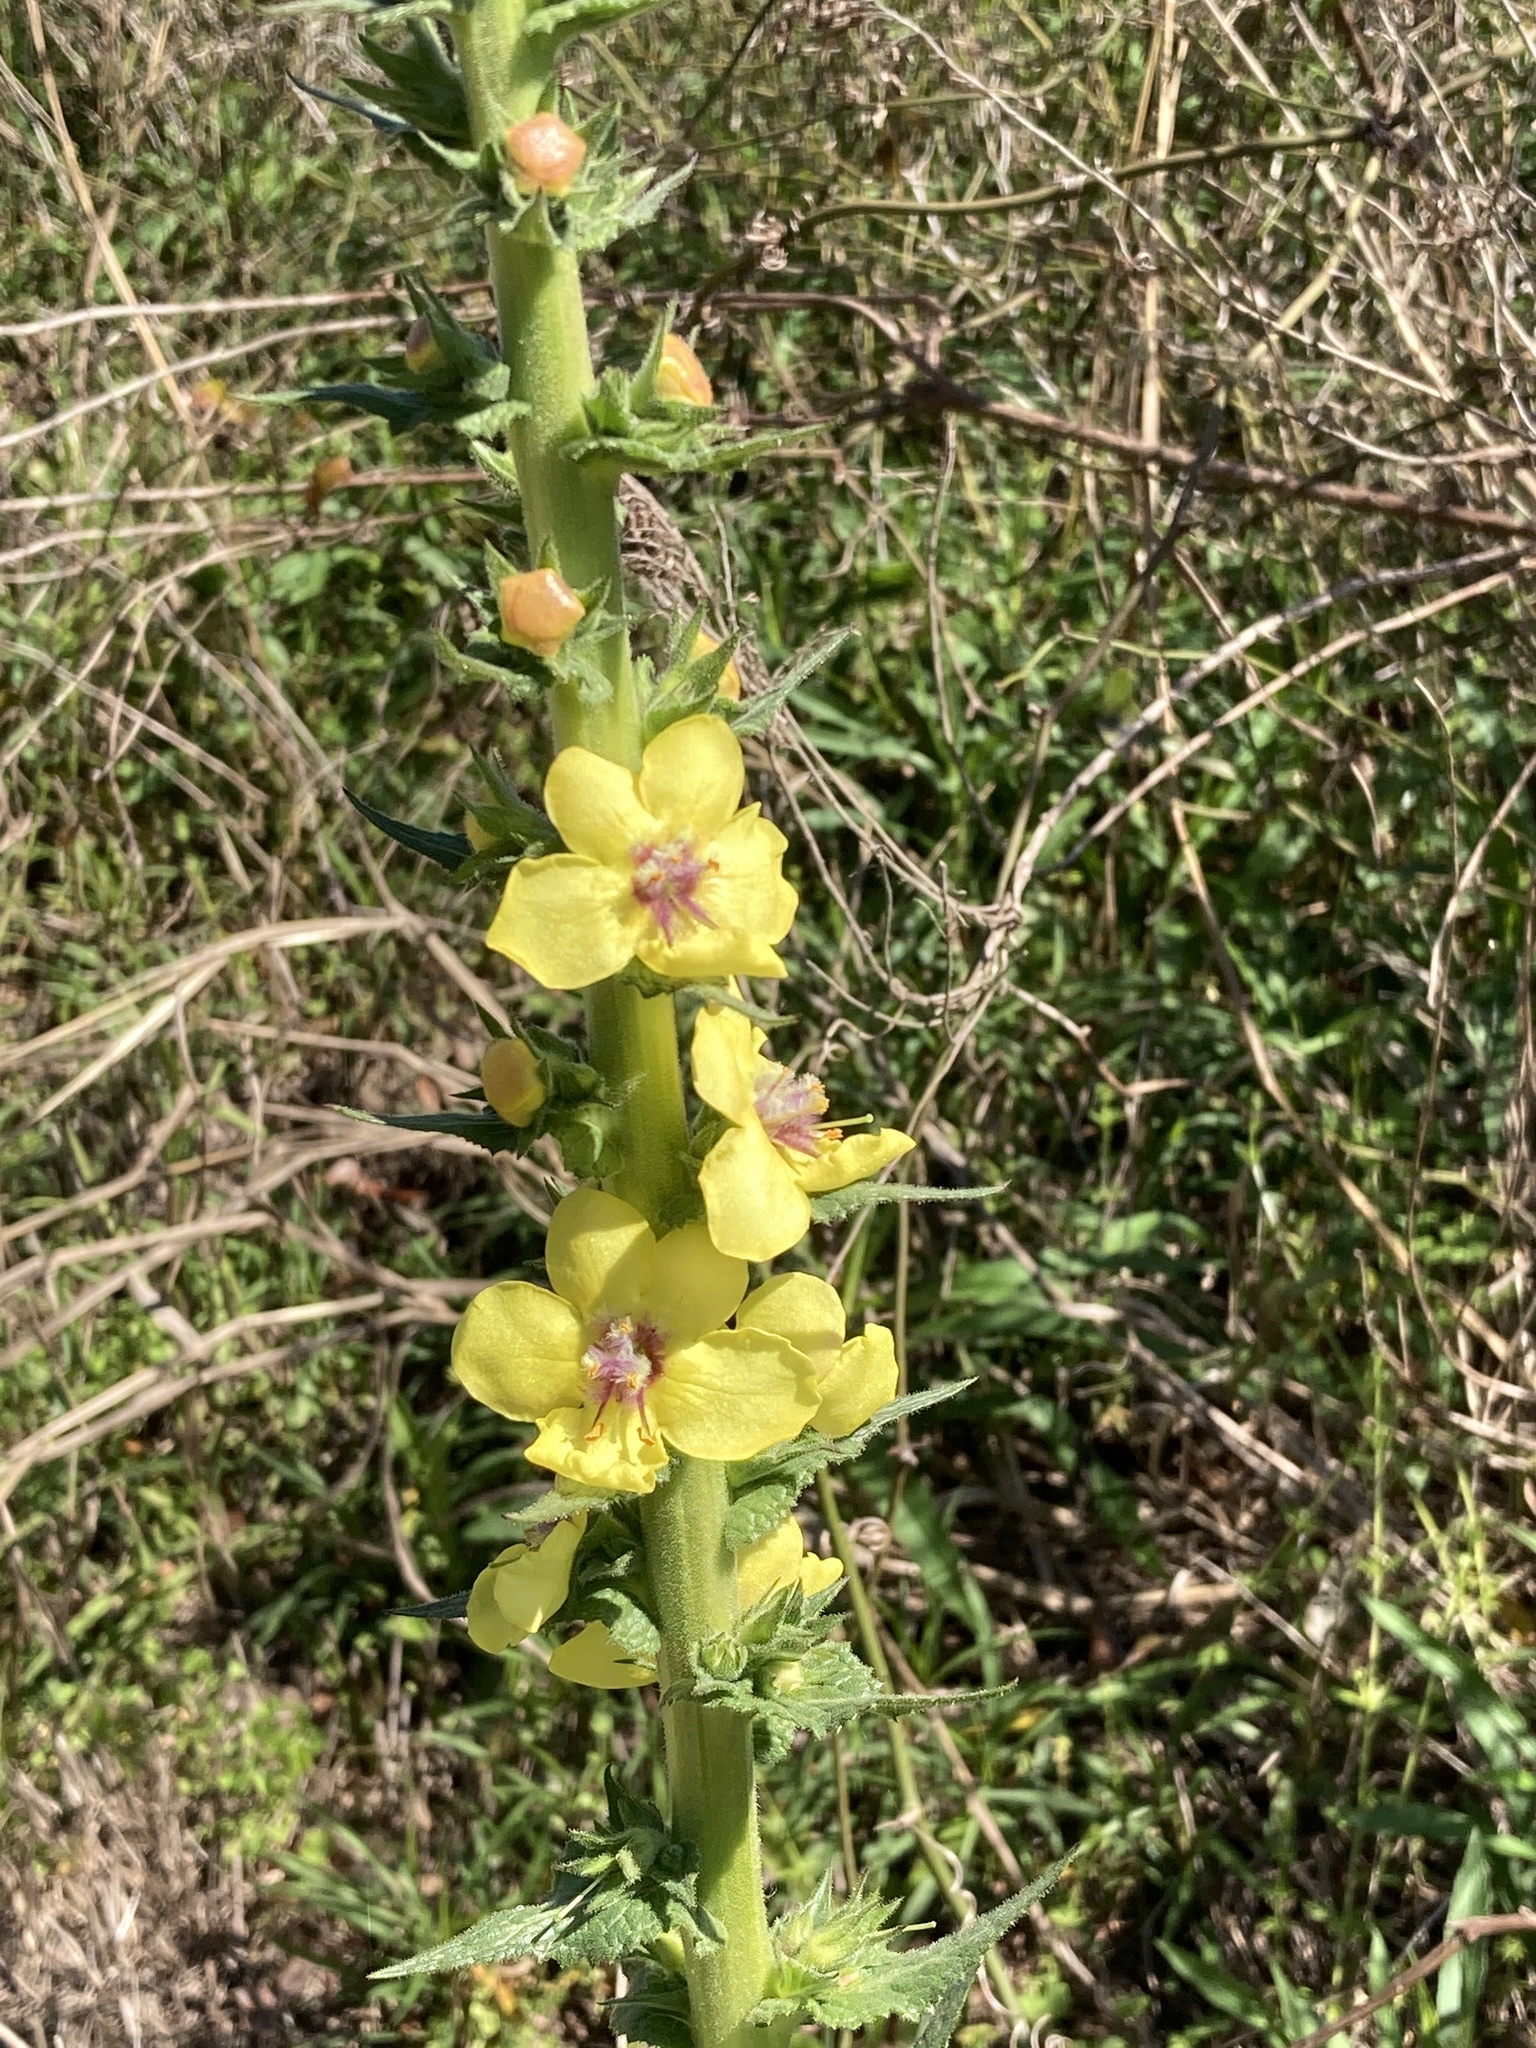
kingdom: Plantae
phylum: Tracheophyta
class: Magnoliopsida
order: Lamiales
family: Scrophulariaceae
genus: Verbascum
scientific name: Verbascum virgatum
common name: Twiggy mullein
